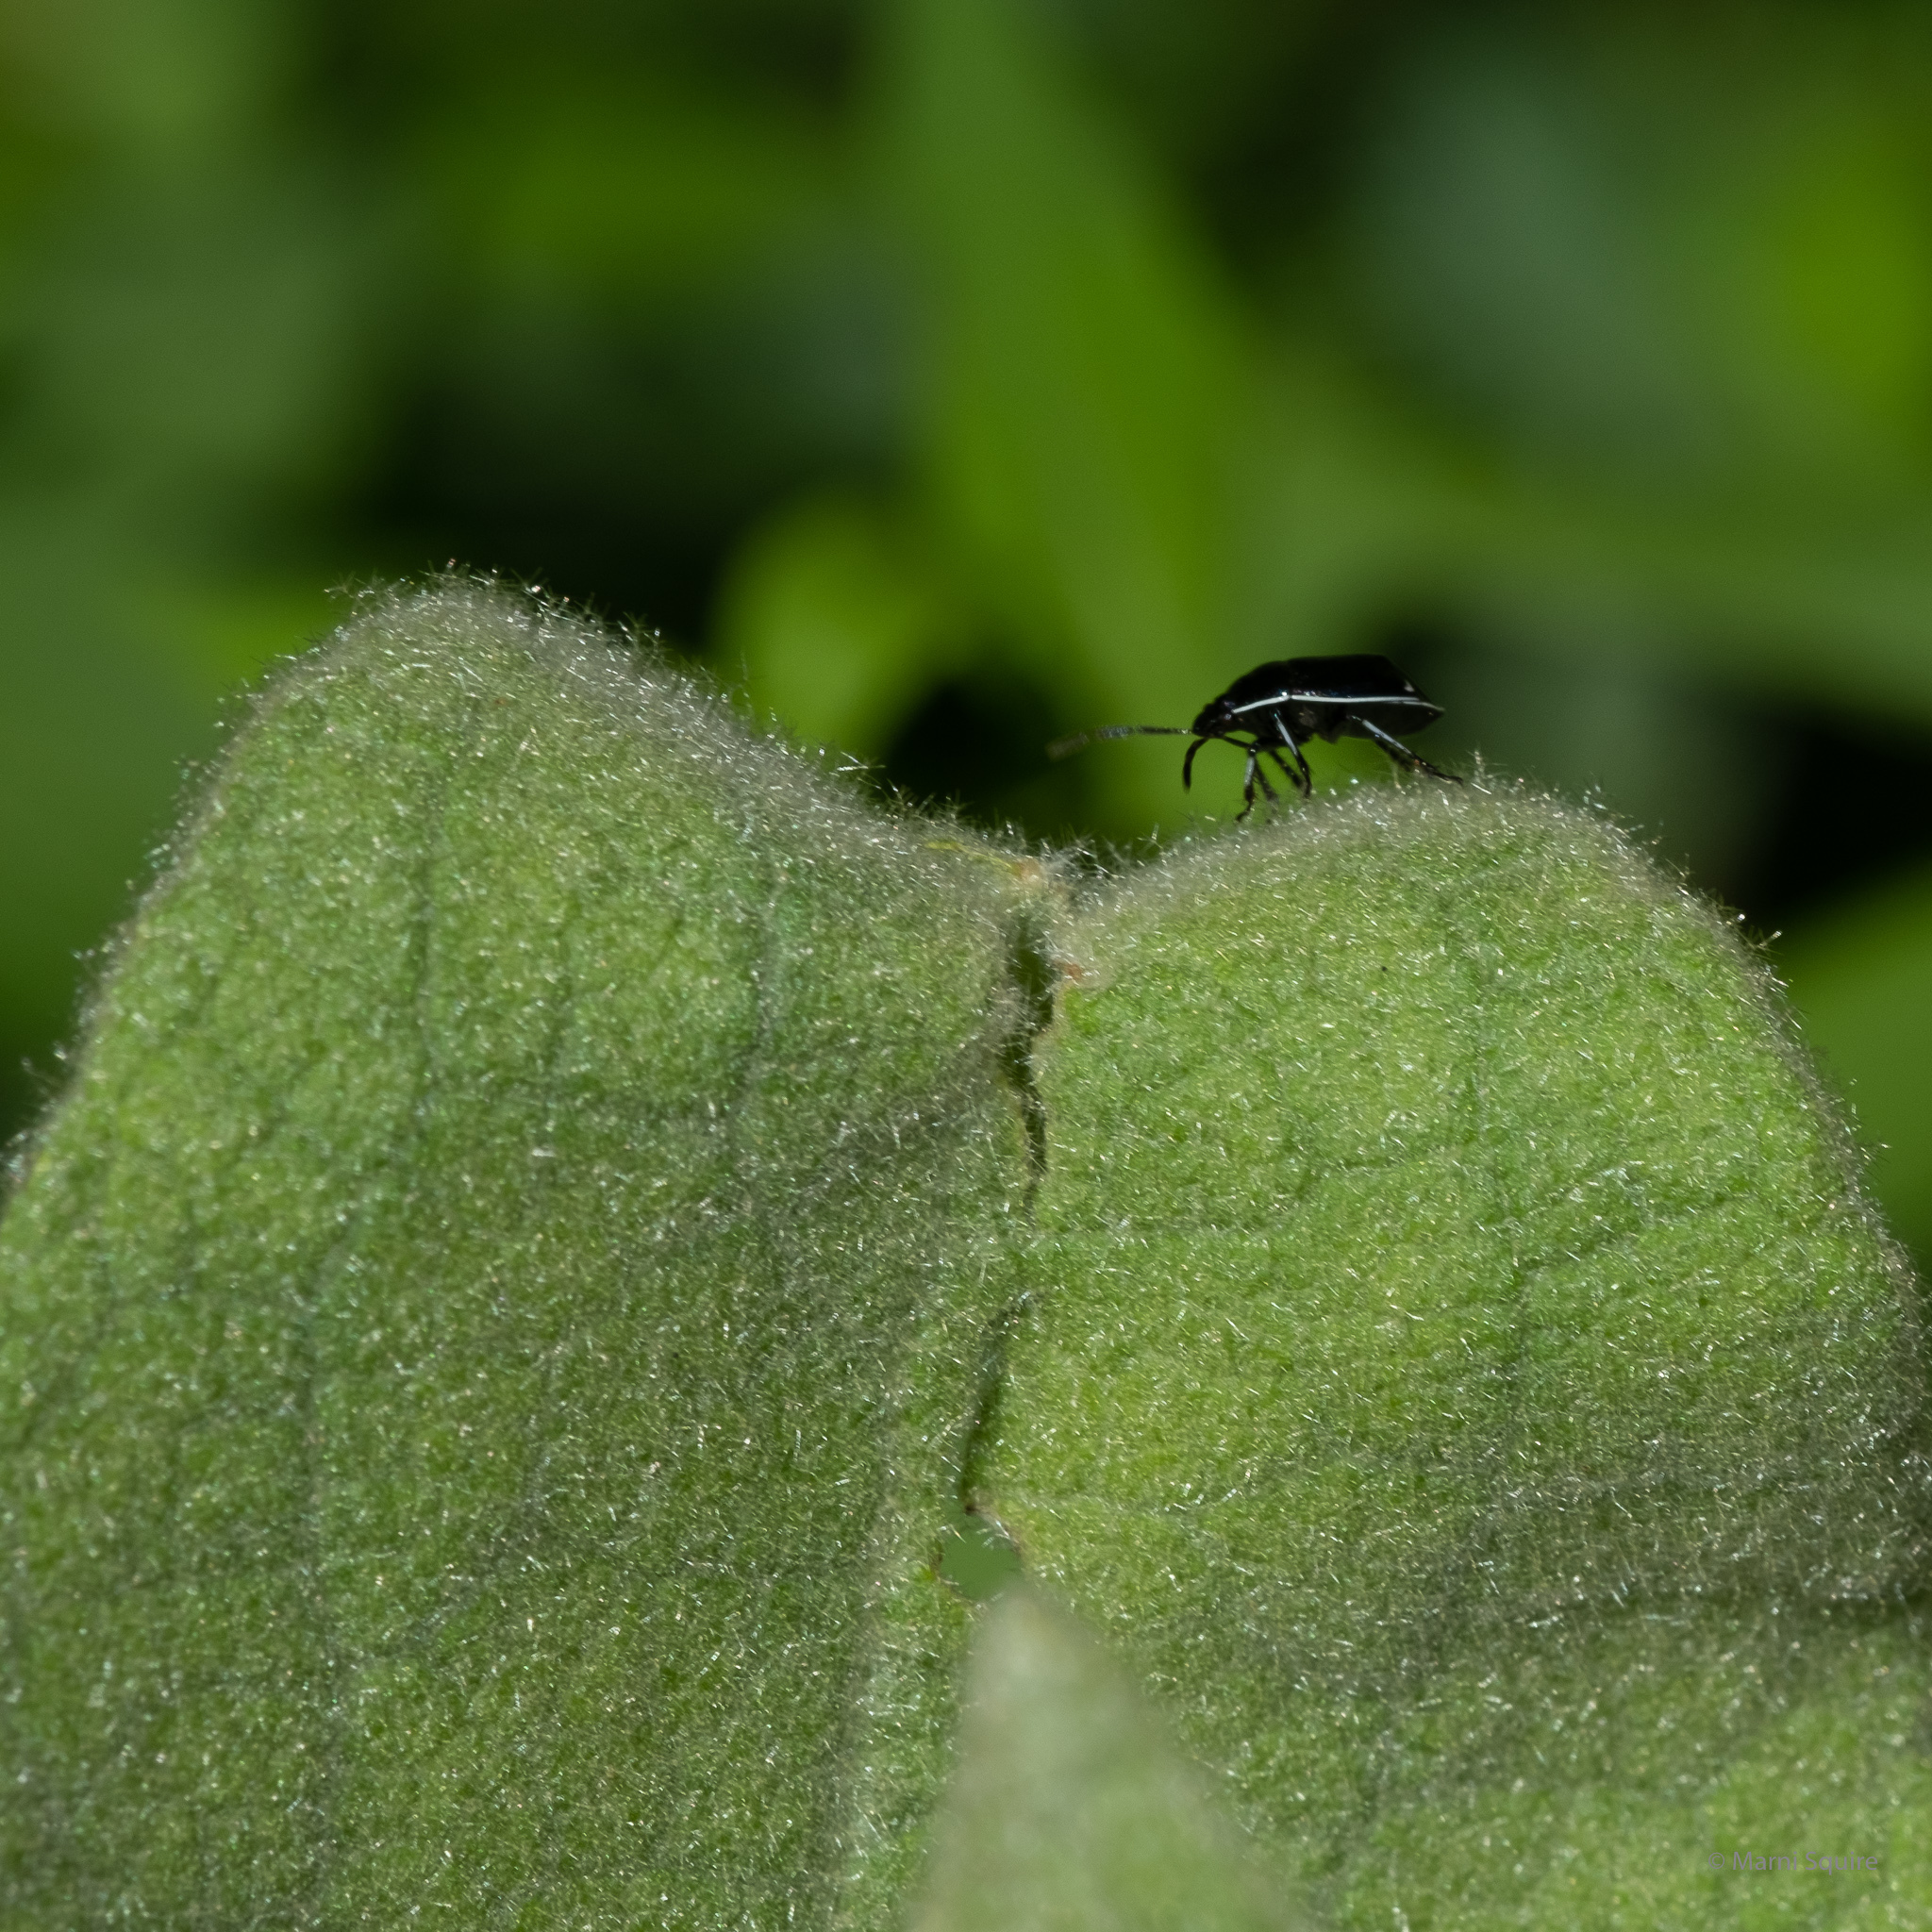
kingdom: Animalia
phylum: Arthropoda
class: Insecta
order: Hemiptera
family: Cydnidae
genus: Sehirus
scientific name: Sehirus cinctus
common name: White-margined burrower bug
